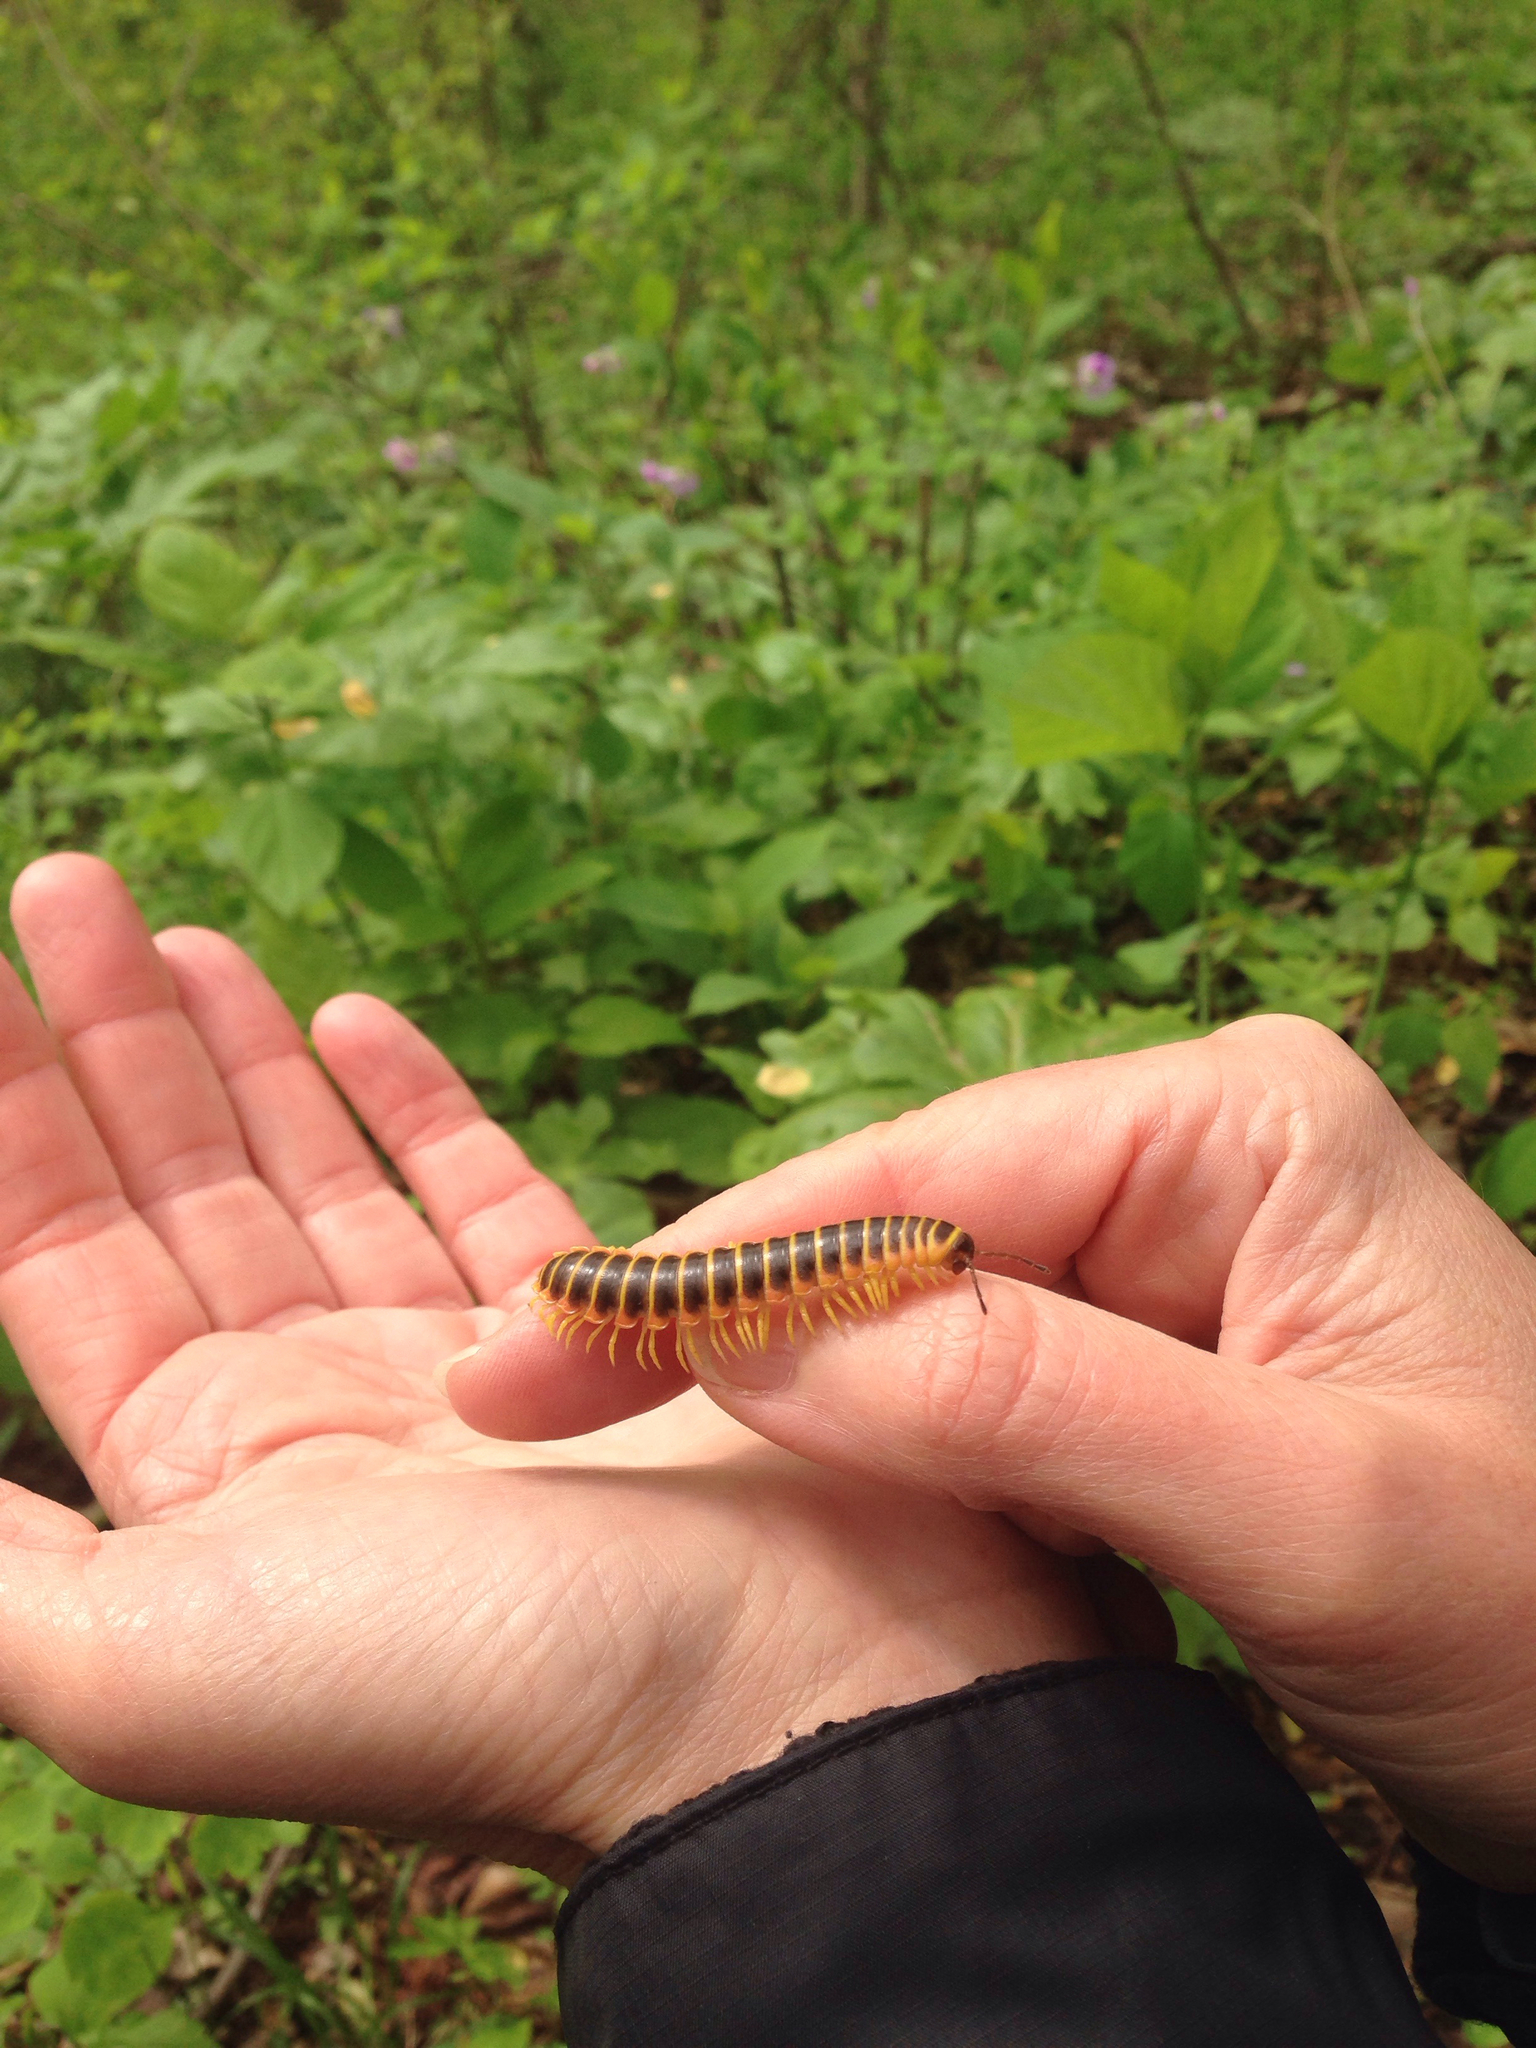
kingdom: Animalia
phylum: Arthropoda
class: Diplopoda
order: Polydesmida
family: Xystodesmidae
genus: Apheloria
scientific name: Apheloria virginiensis
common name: Black-and-gold flat millipede
